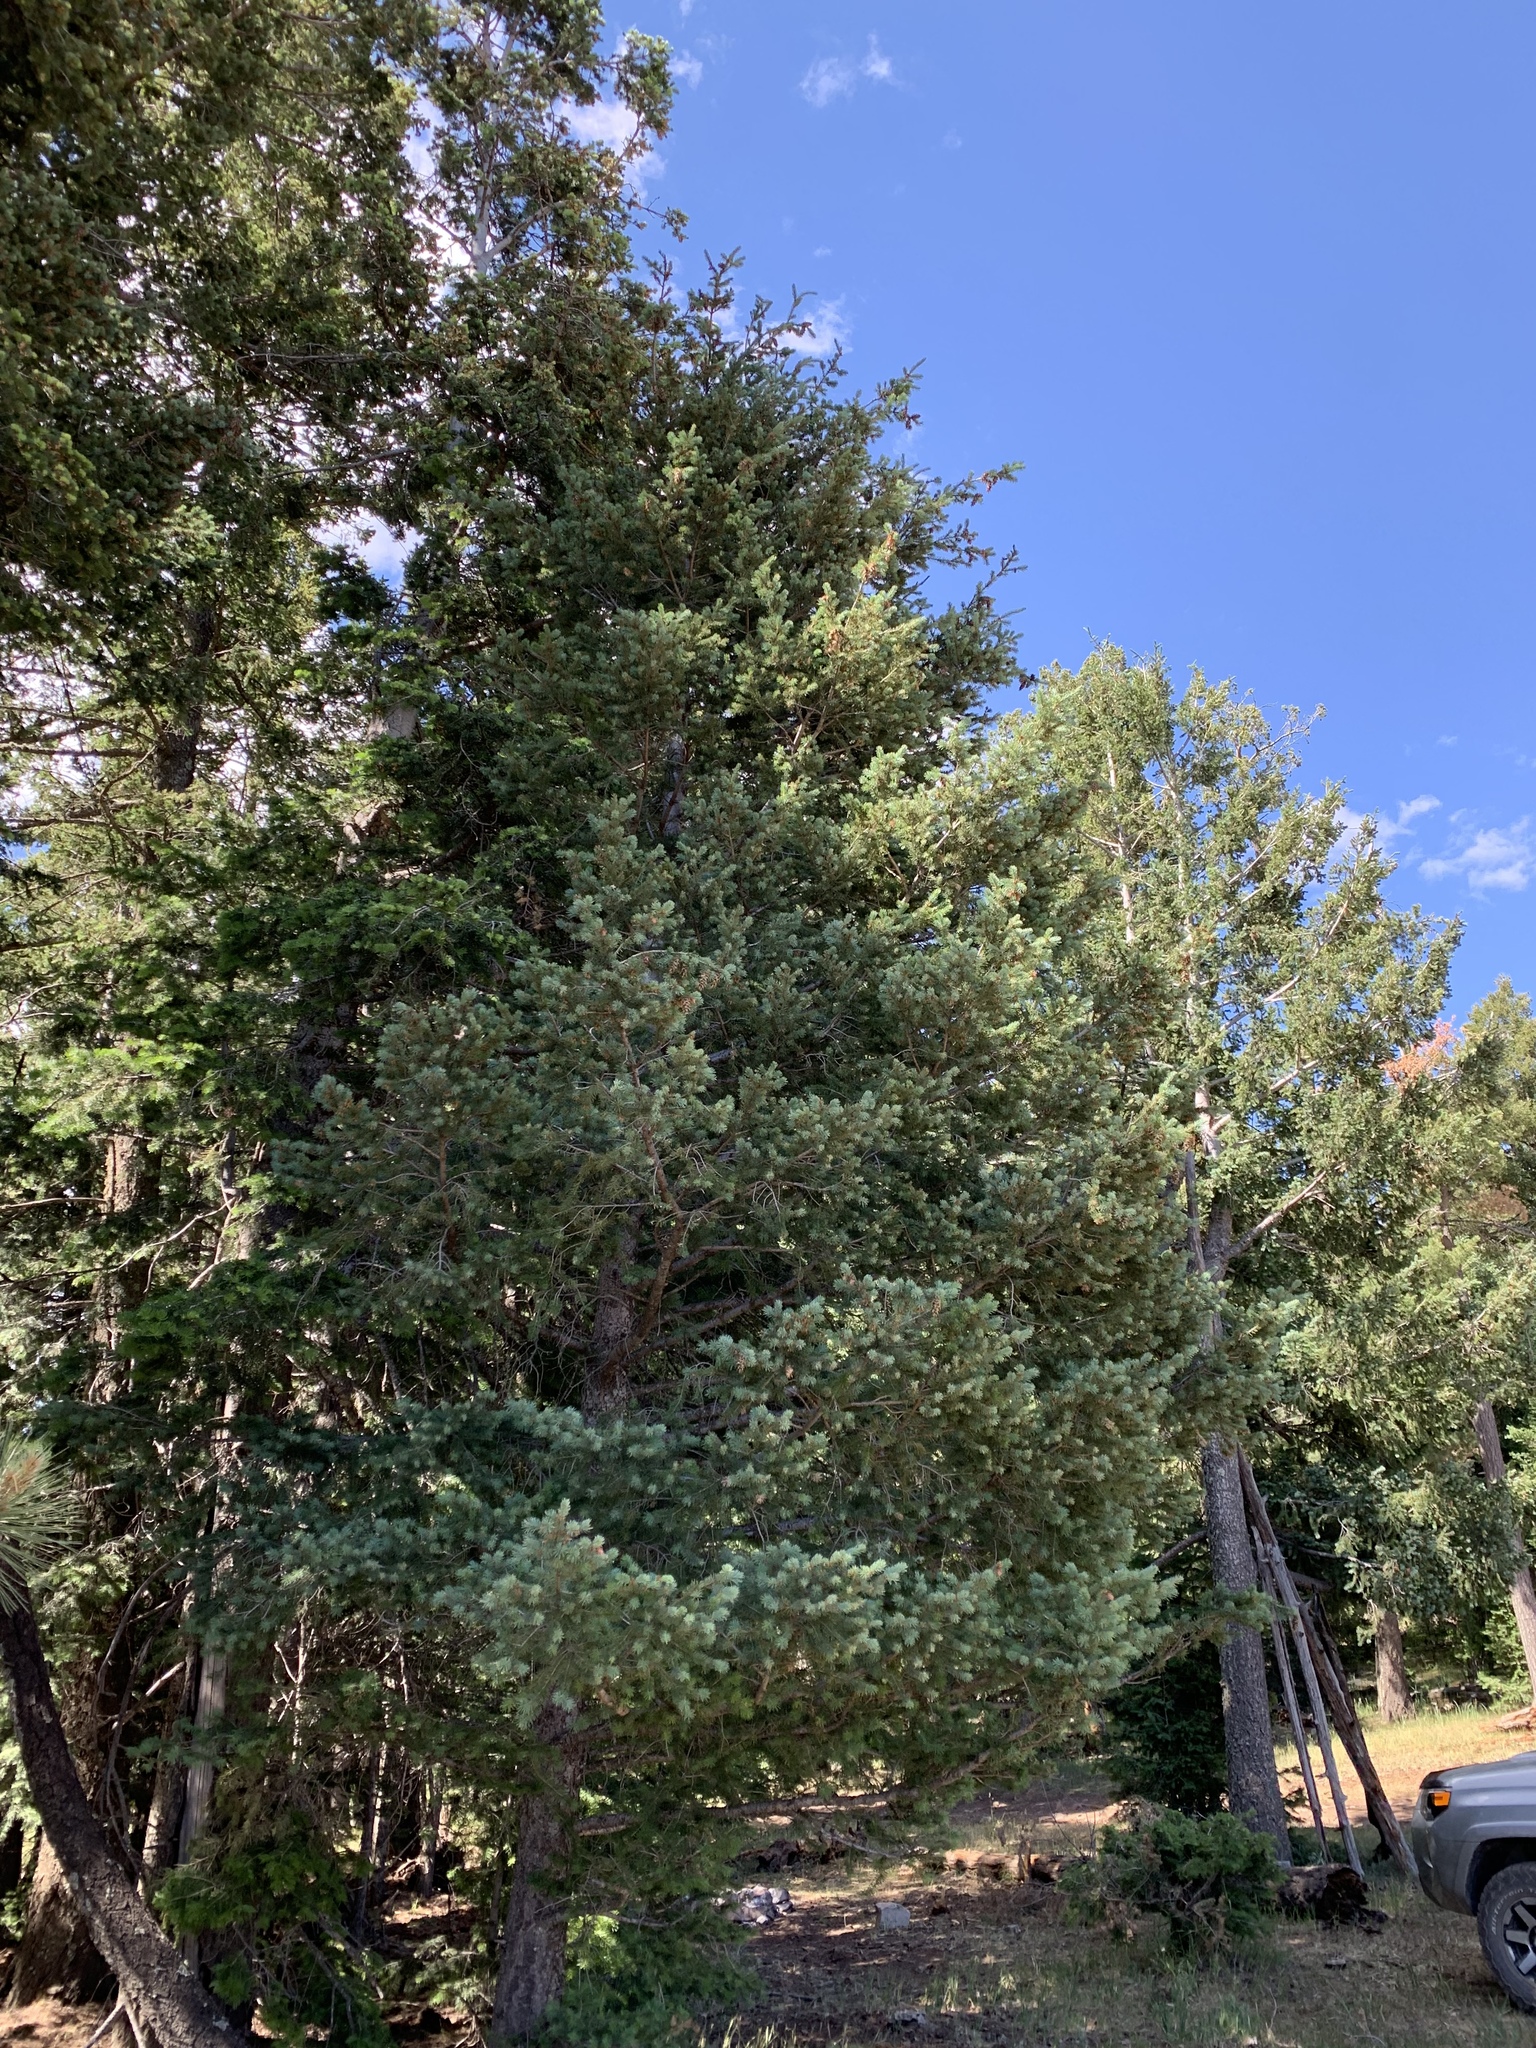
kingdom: Plantae
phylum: Tracheophyta
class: Pinopsida
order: Pinales
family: Pinaceae
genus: Pseudotsuga
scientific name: Pseudotsuga menziesii
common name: Douglas fir
